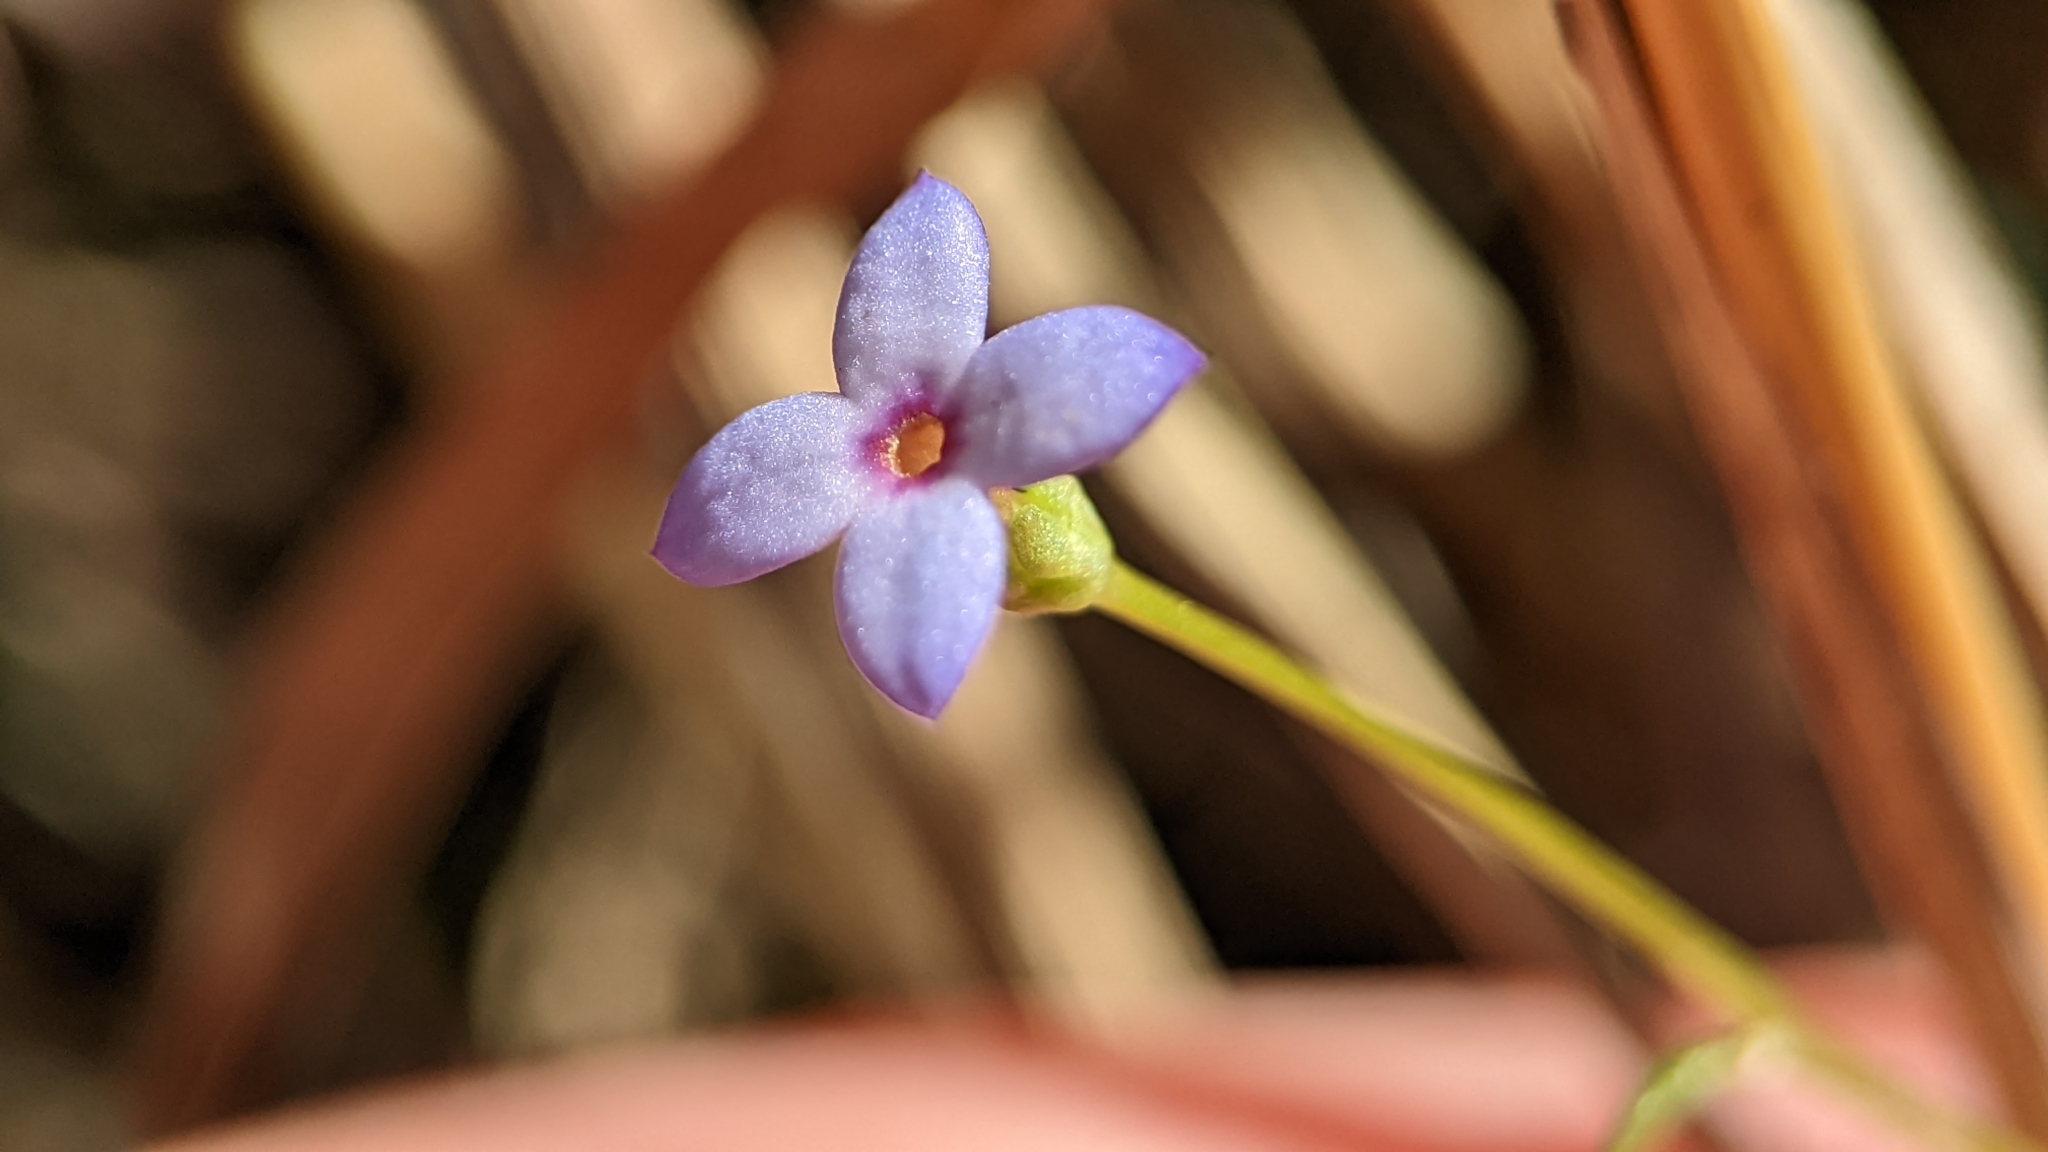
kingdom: Plantae
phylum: Tracheophyta
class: Magnoliopsida
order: Gentianales
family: Rubiaceae
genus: Houstonia
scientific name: Houstonia pusilla
